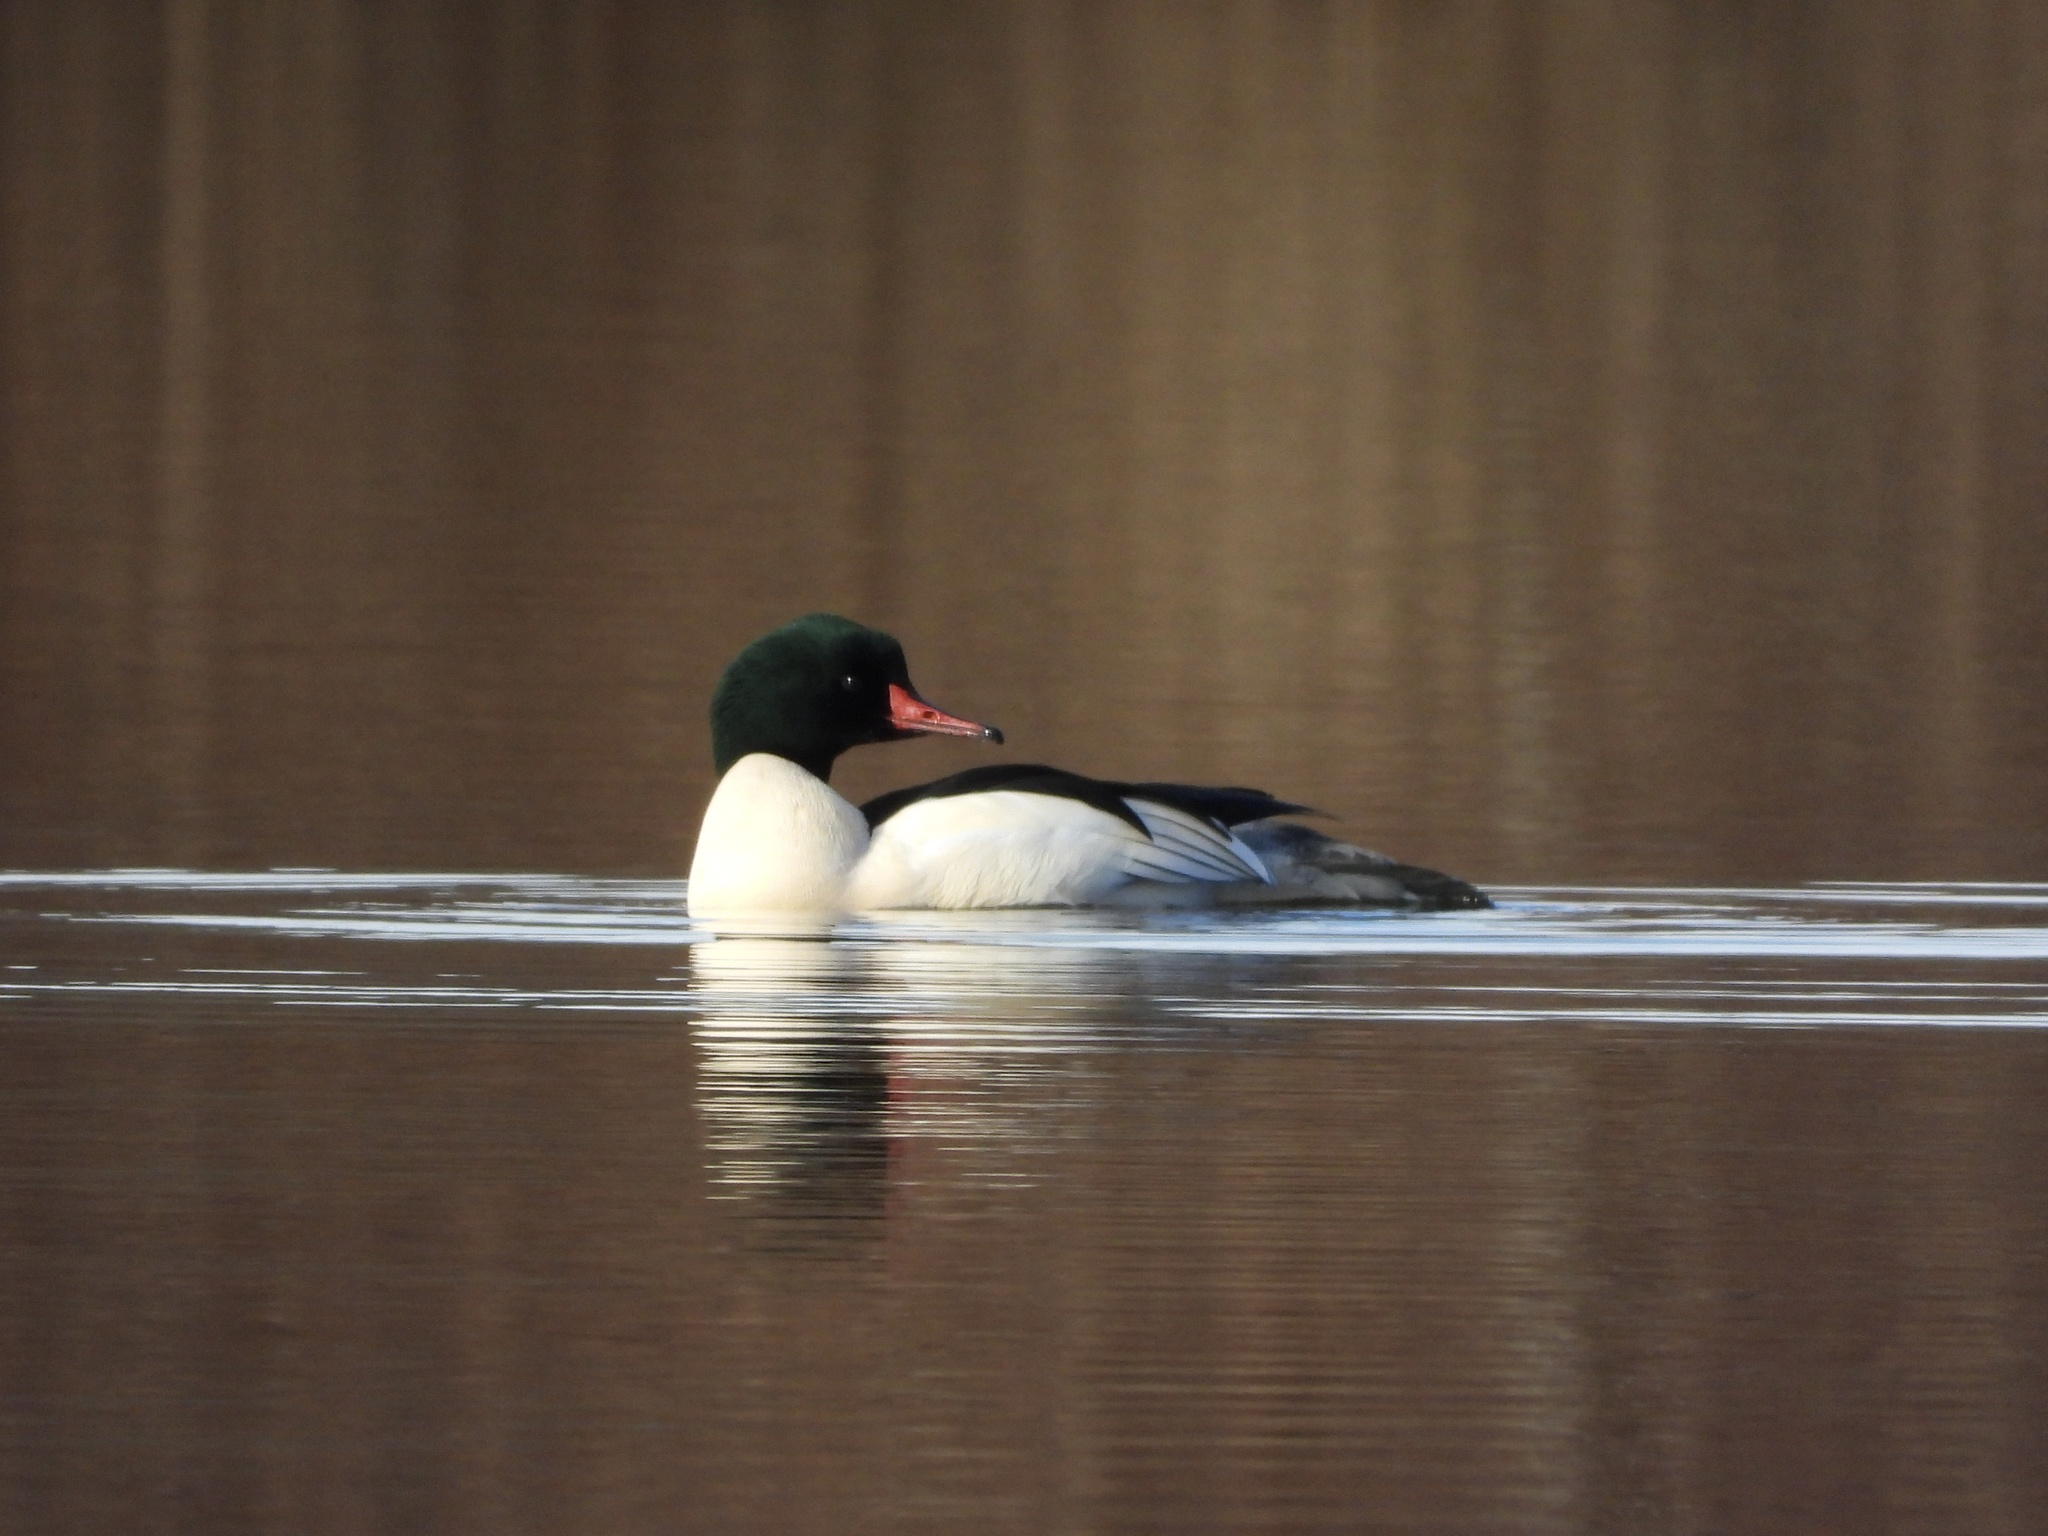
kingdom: Animalia
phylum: Chordata
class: Aves
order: Anseriformes
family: Anatidae
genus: Mergus
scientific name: Mergus merganser
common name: Common merganser
